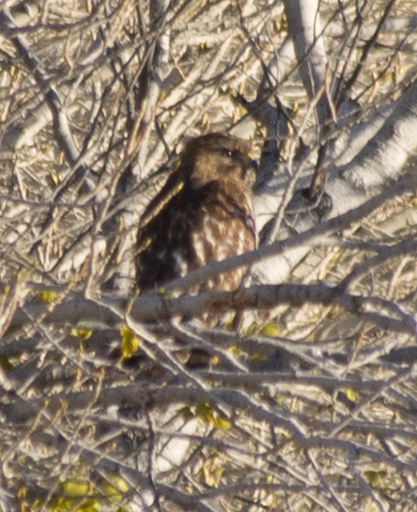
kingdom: Animalia
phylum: Chordata
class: Aves
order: Accipitriformes
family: Accipitridae
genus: Buteo
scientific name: Buteo lineatus
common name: Red-shouldered hawk
